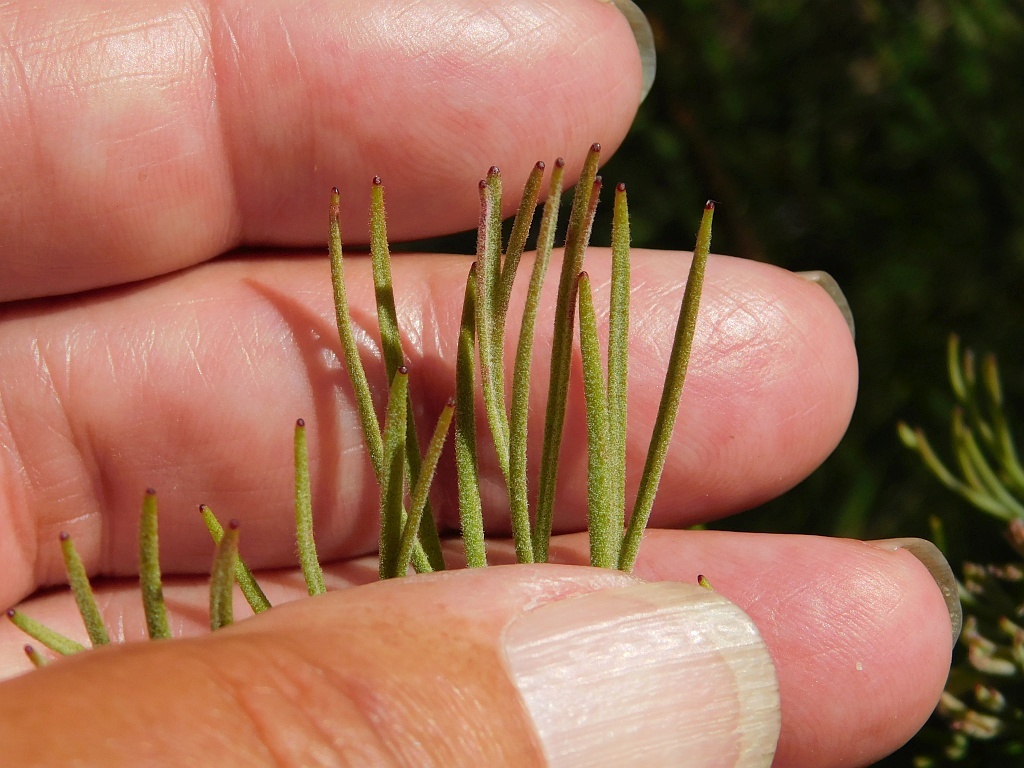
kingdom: Plantae
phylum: Tracheophyta
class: Magnoliopsida
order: Proteales
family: Proteaceae
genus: Paranomus
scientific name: Paranomus dispersus
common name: Long-head sceptre
